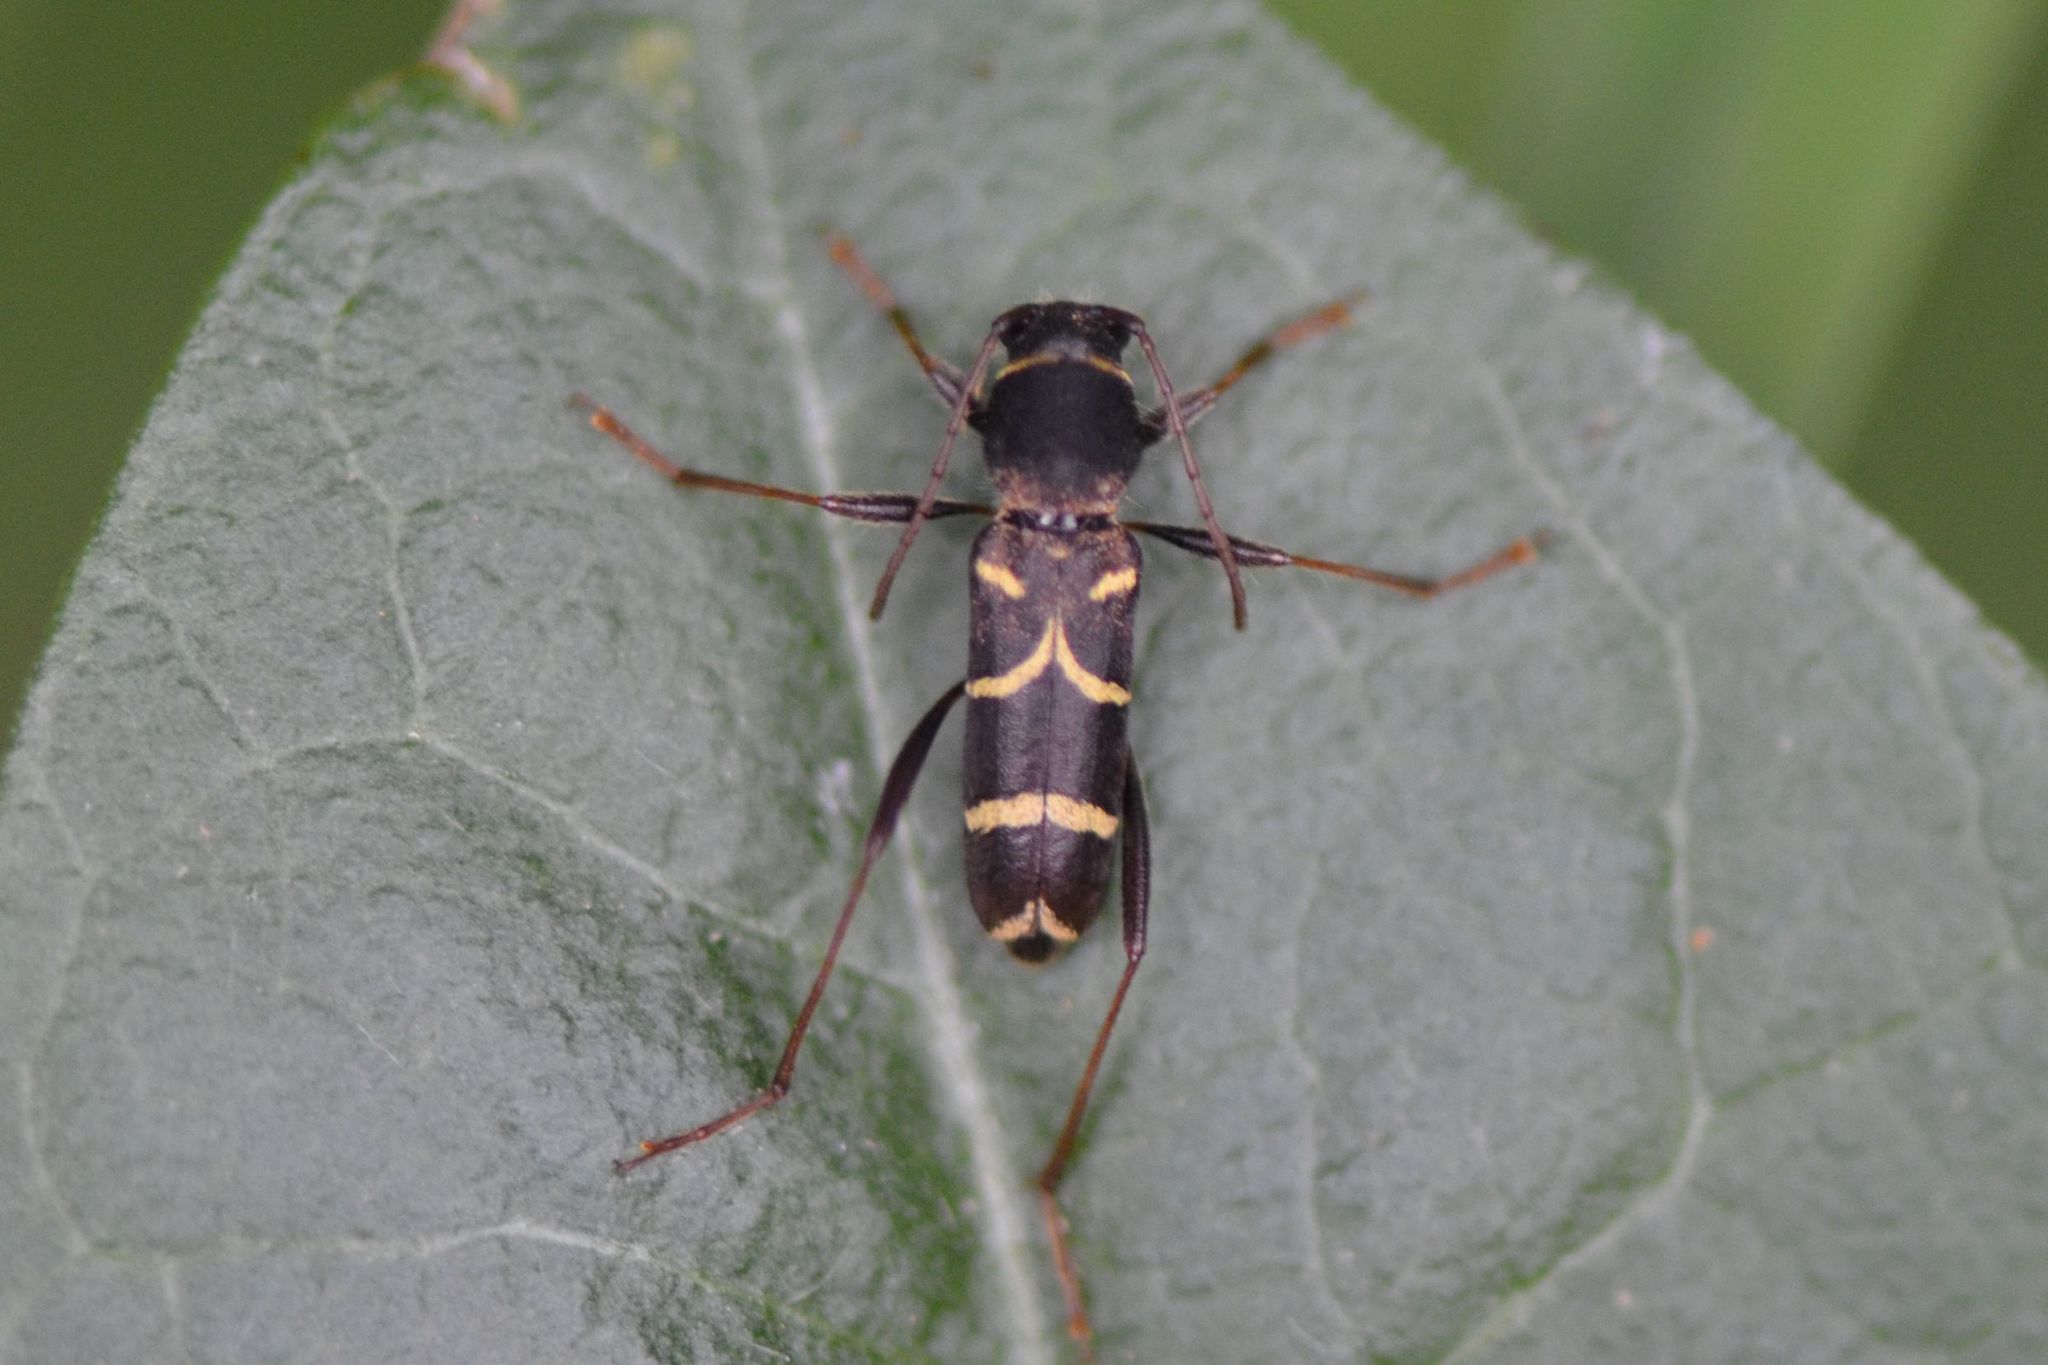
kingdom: Animalia
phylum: Arthropoda
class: Insecta
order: Coleoptera
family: Cerambycidae
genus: Clytus
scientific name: Clytus lama
